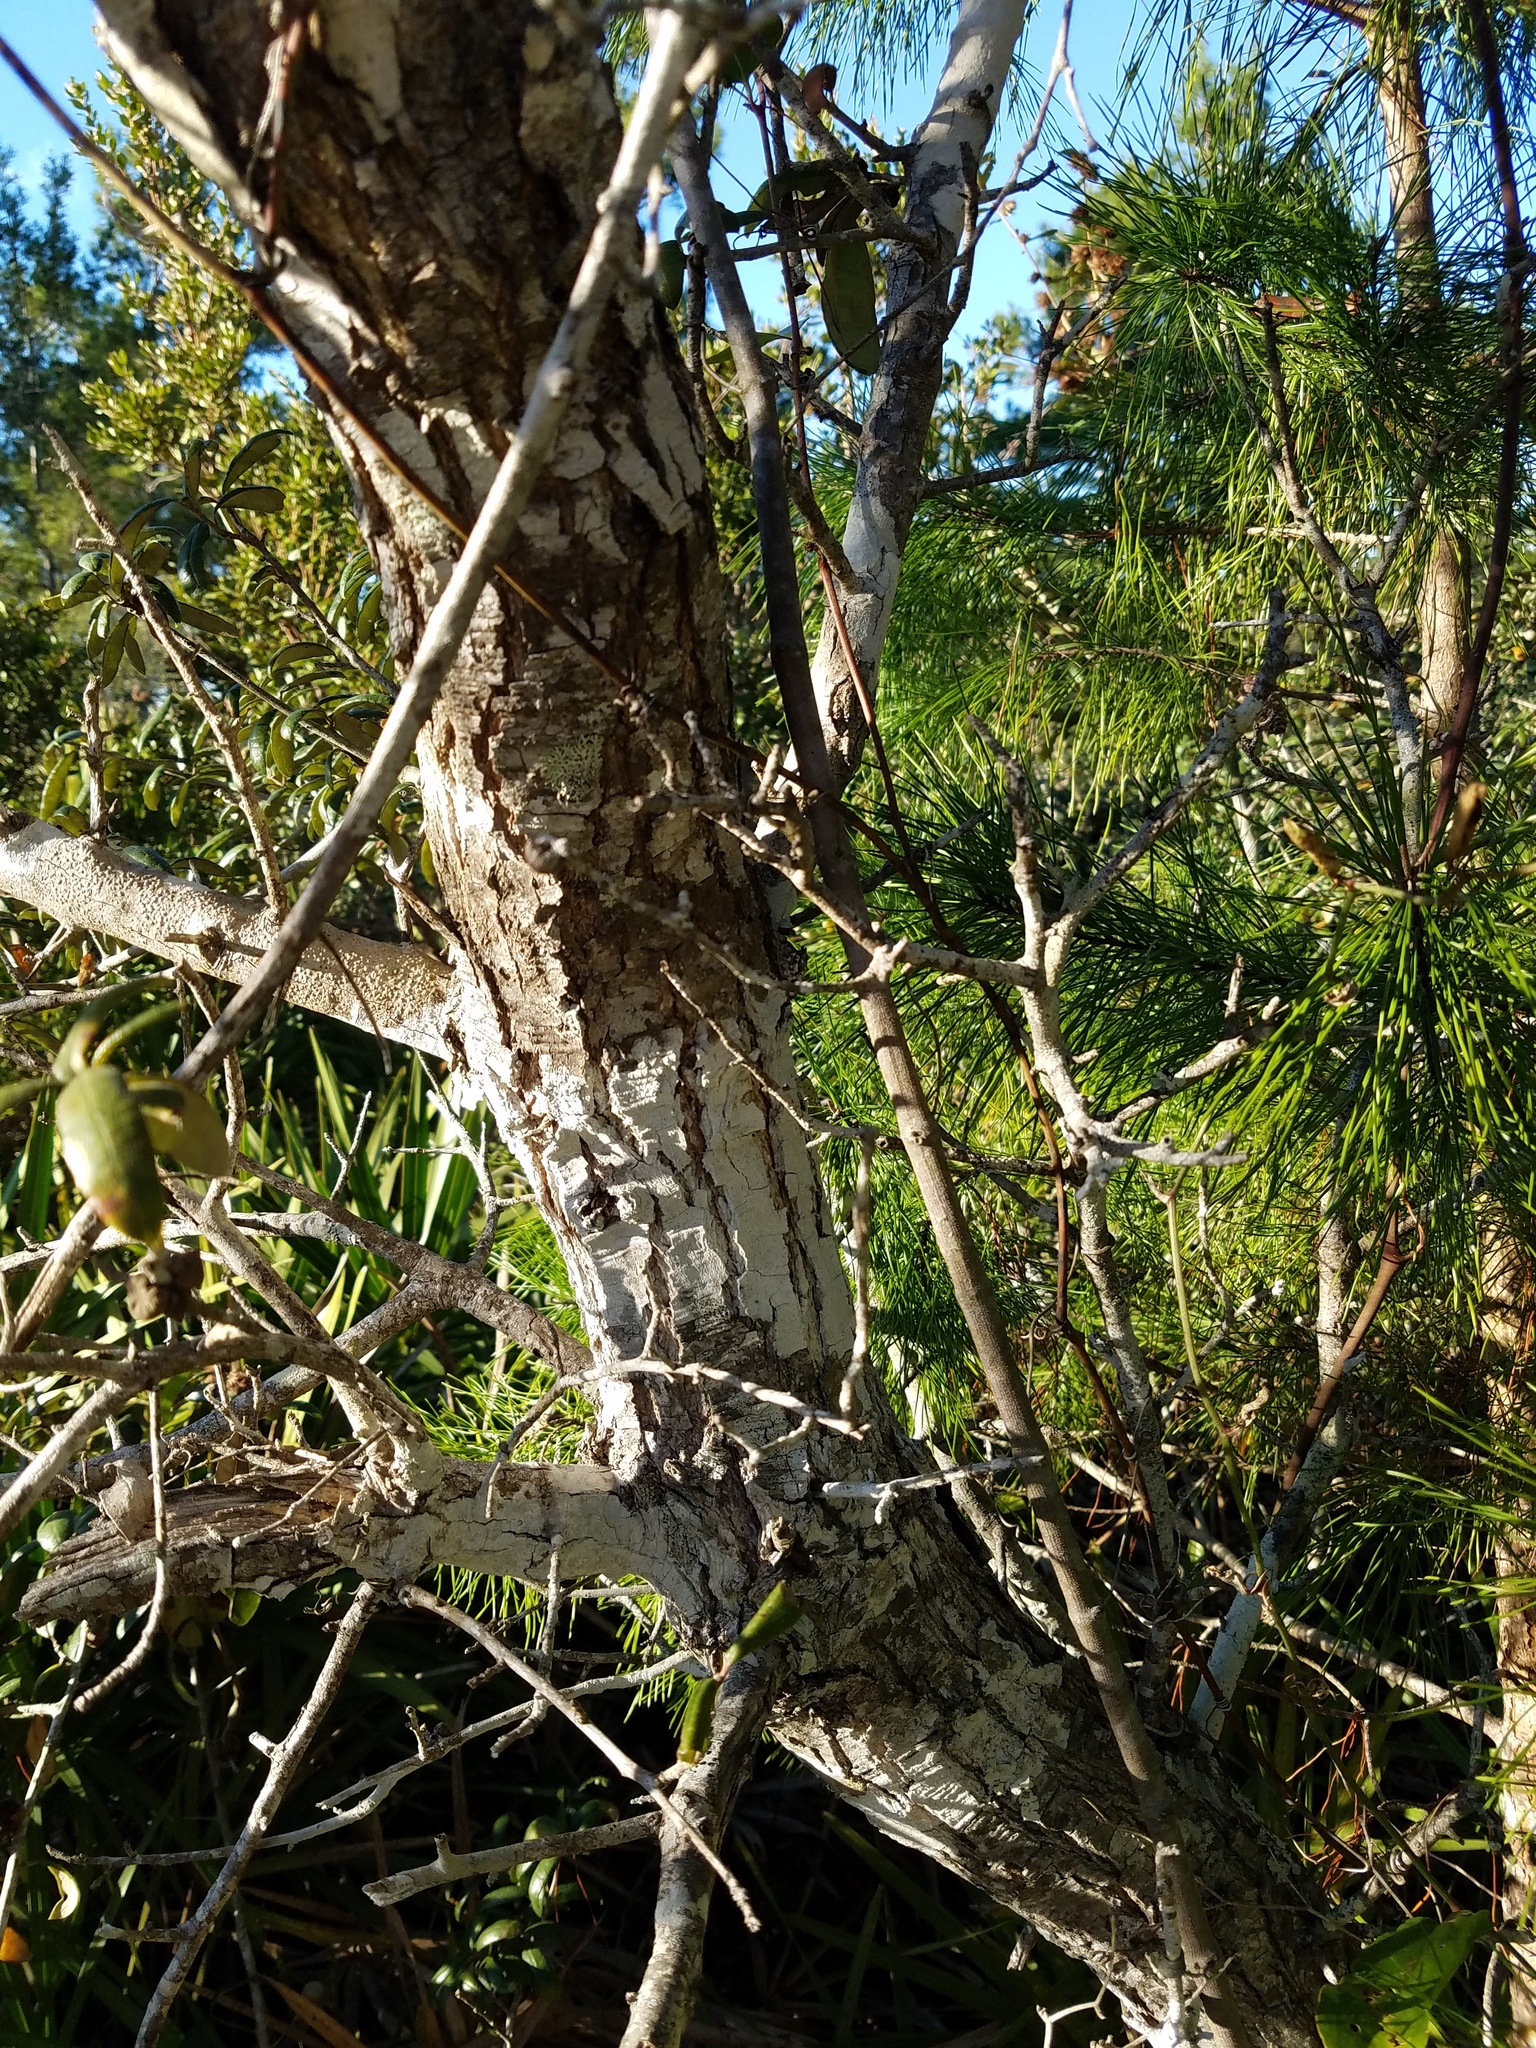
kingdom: Plantae
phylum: Tracheophyta
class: Magnoliopsida
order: Fagales
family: Fagaceae
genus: Quercus
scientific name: Quercus geminata
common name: Sand live oak
